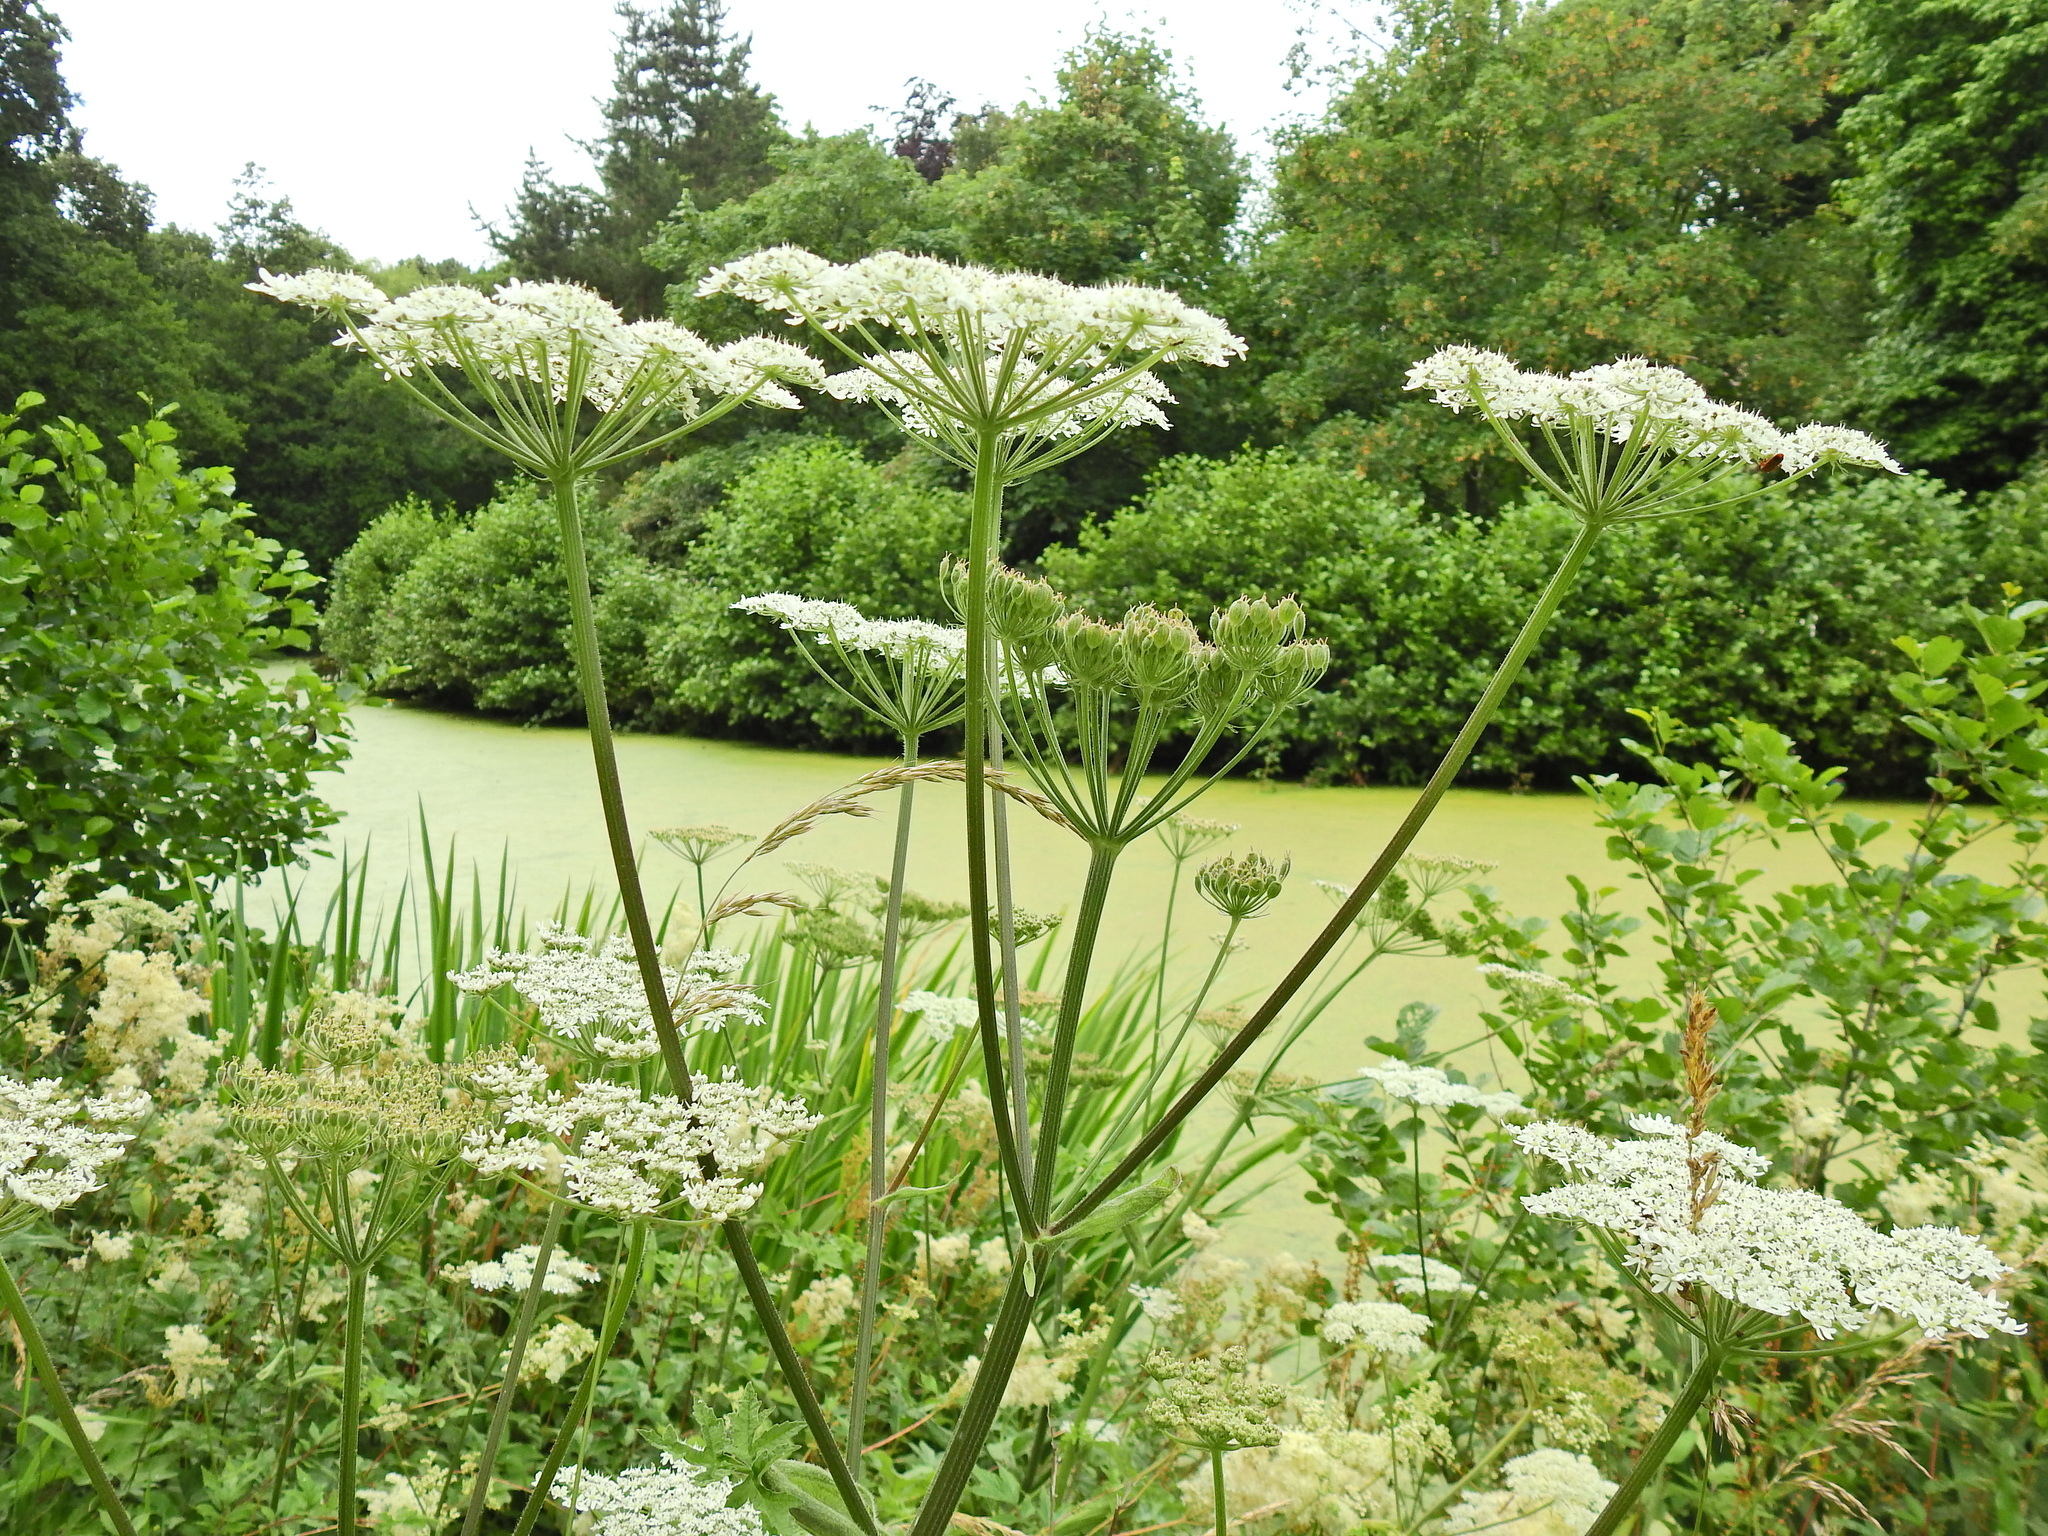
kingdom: Plantae
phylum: Tracheophyta
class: Magnoliopsida
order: Apiales
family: Apiaceae
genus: Heracleum
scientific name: Heracleum sphondylium
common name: Hogweed
